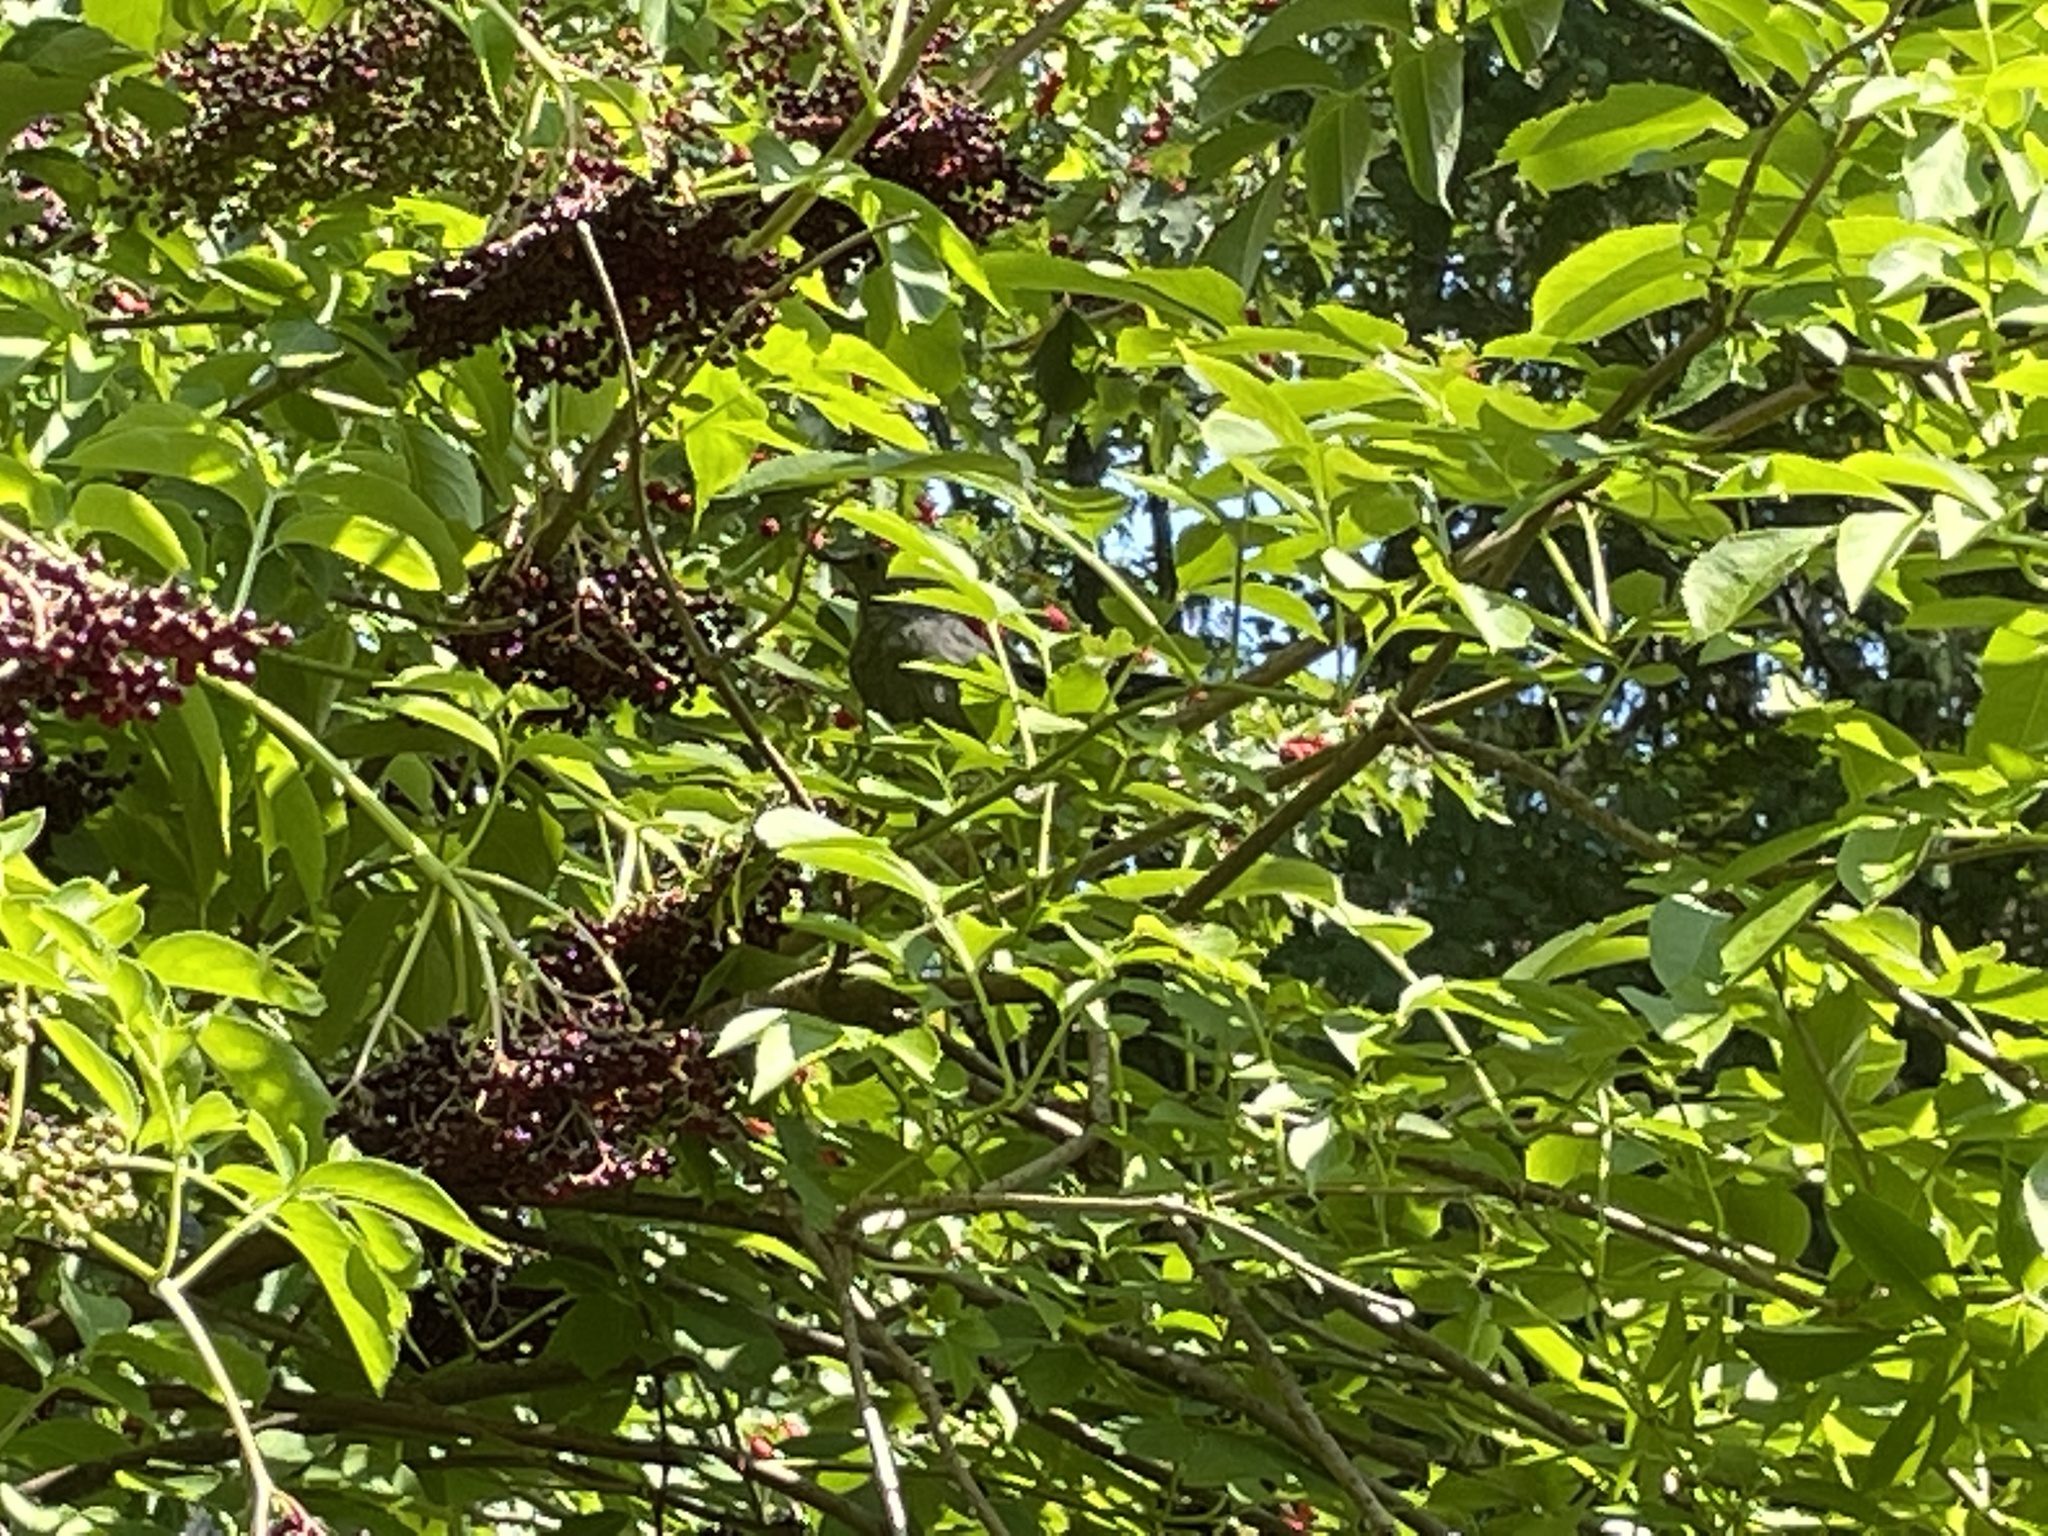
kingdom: Animalia
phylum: Chordata
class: Aves
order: Passeriformes
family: Mimidae
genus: Dumetella
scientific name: Dumetella carolinensis
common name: Gray catbird
